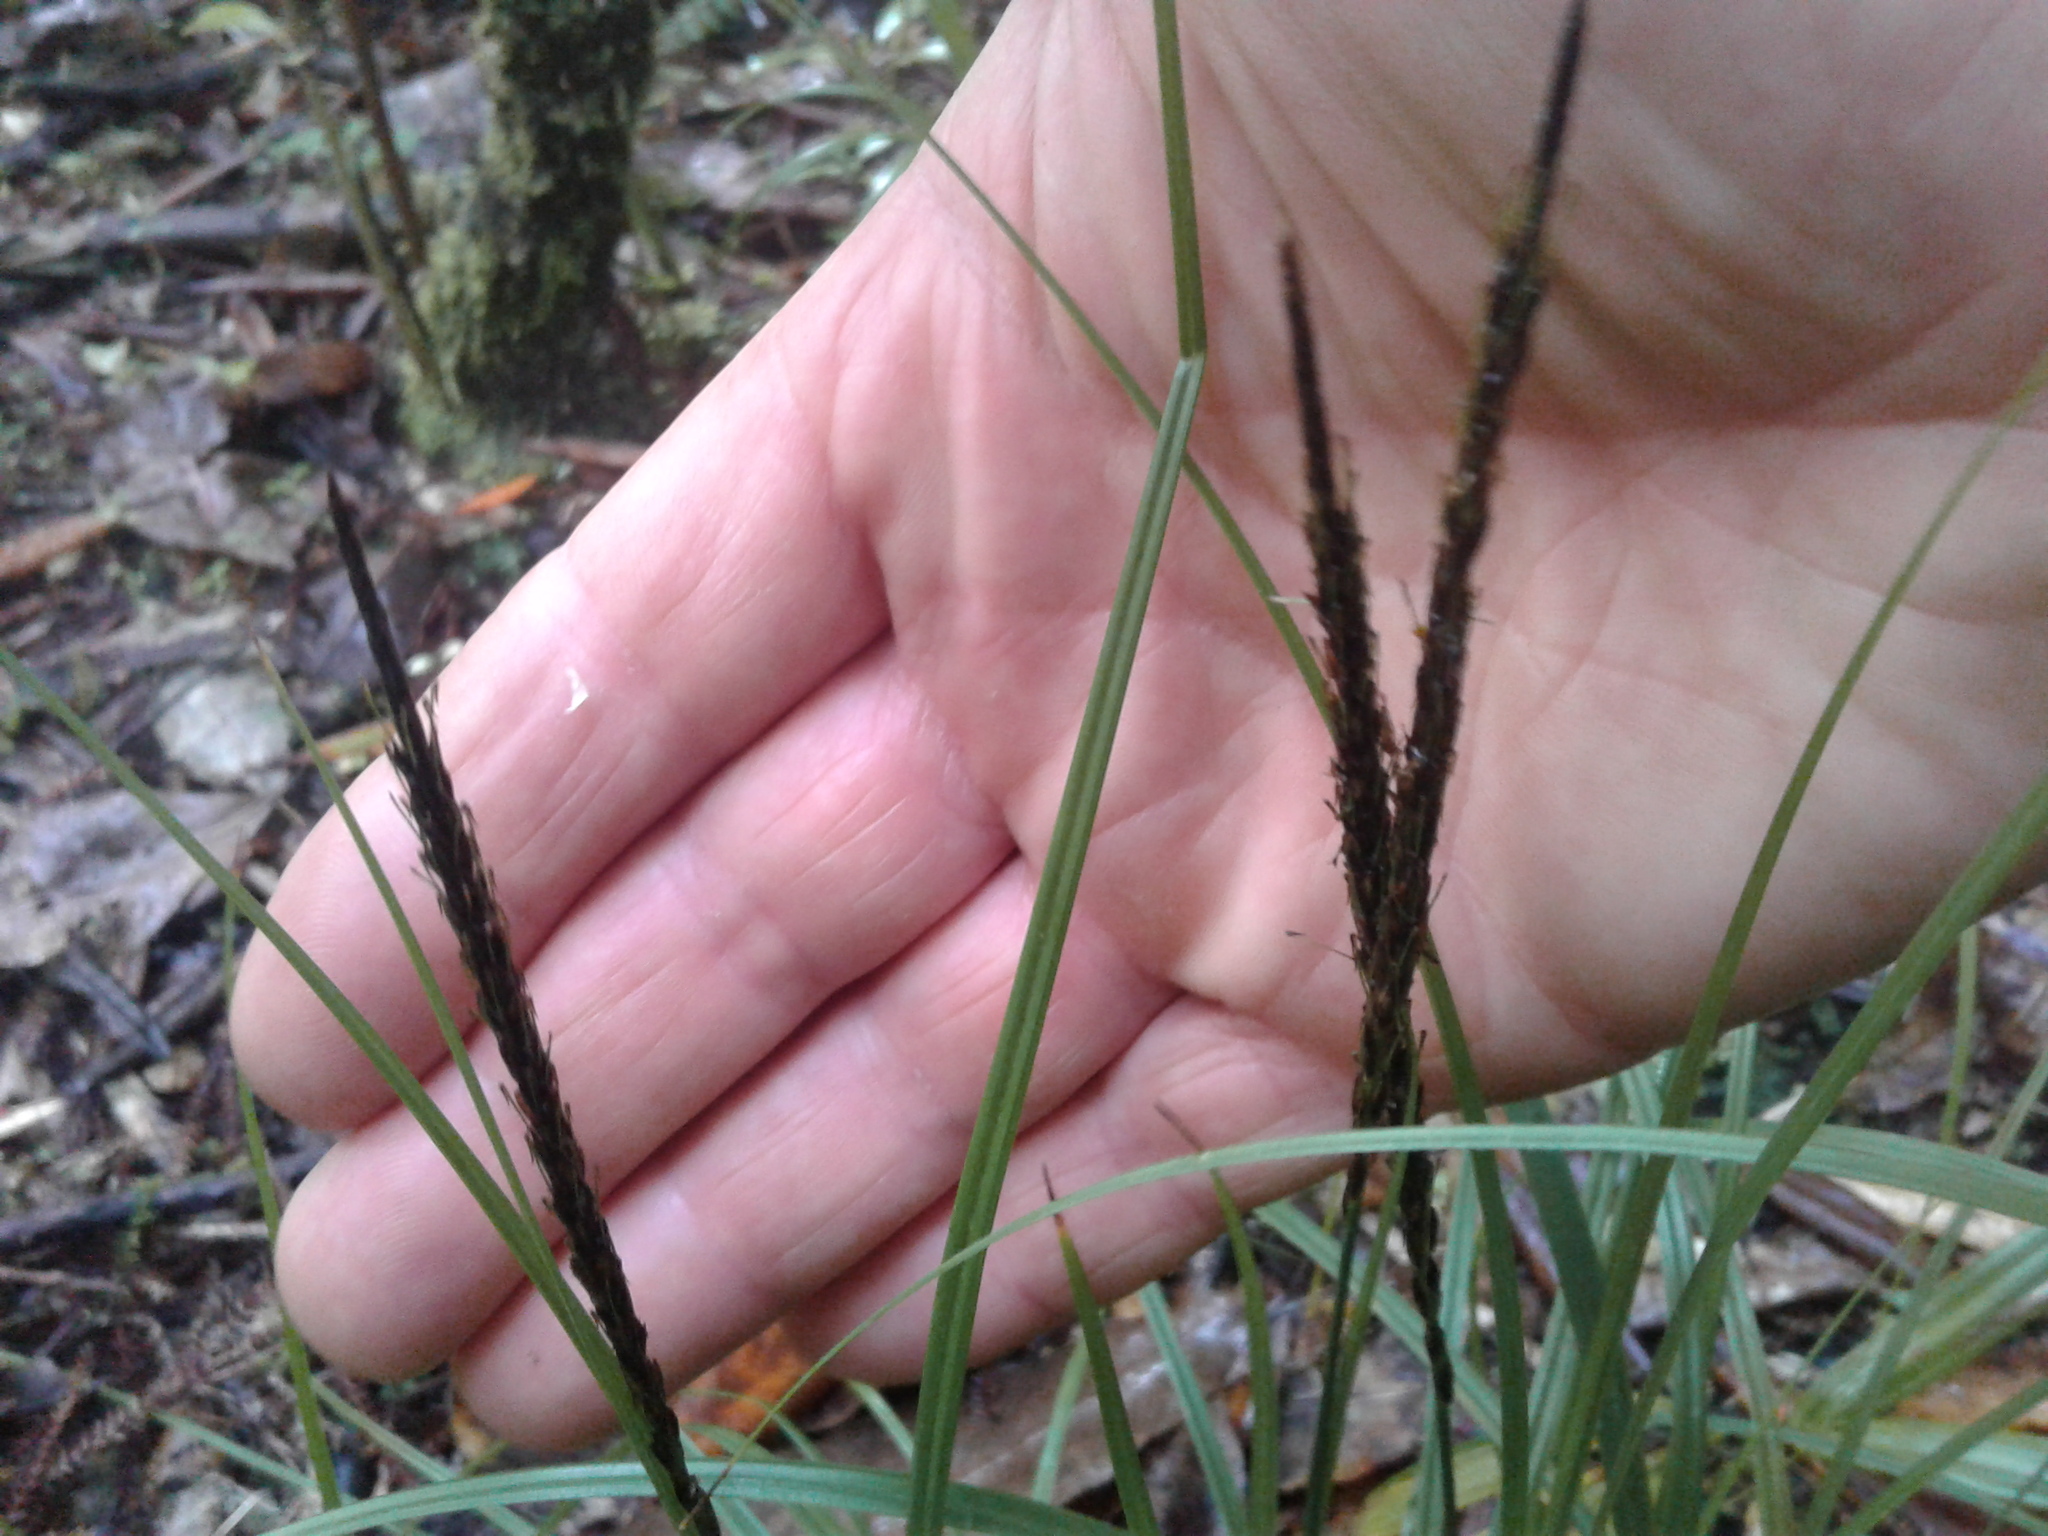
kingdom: Plantae
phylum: Tracheophyta
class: Liliopsida
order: Poales
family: Cyperaceae
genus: Carex
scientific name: Carex
